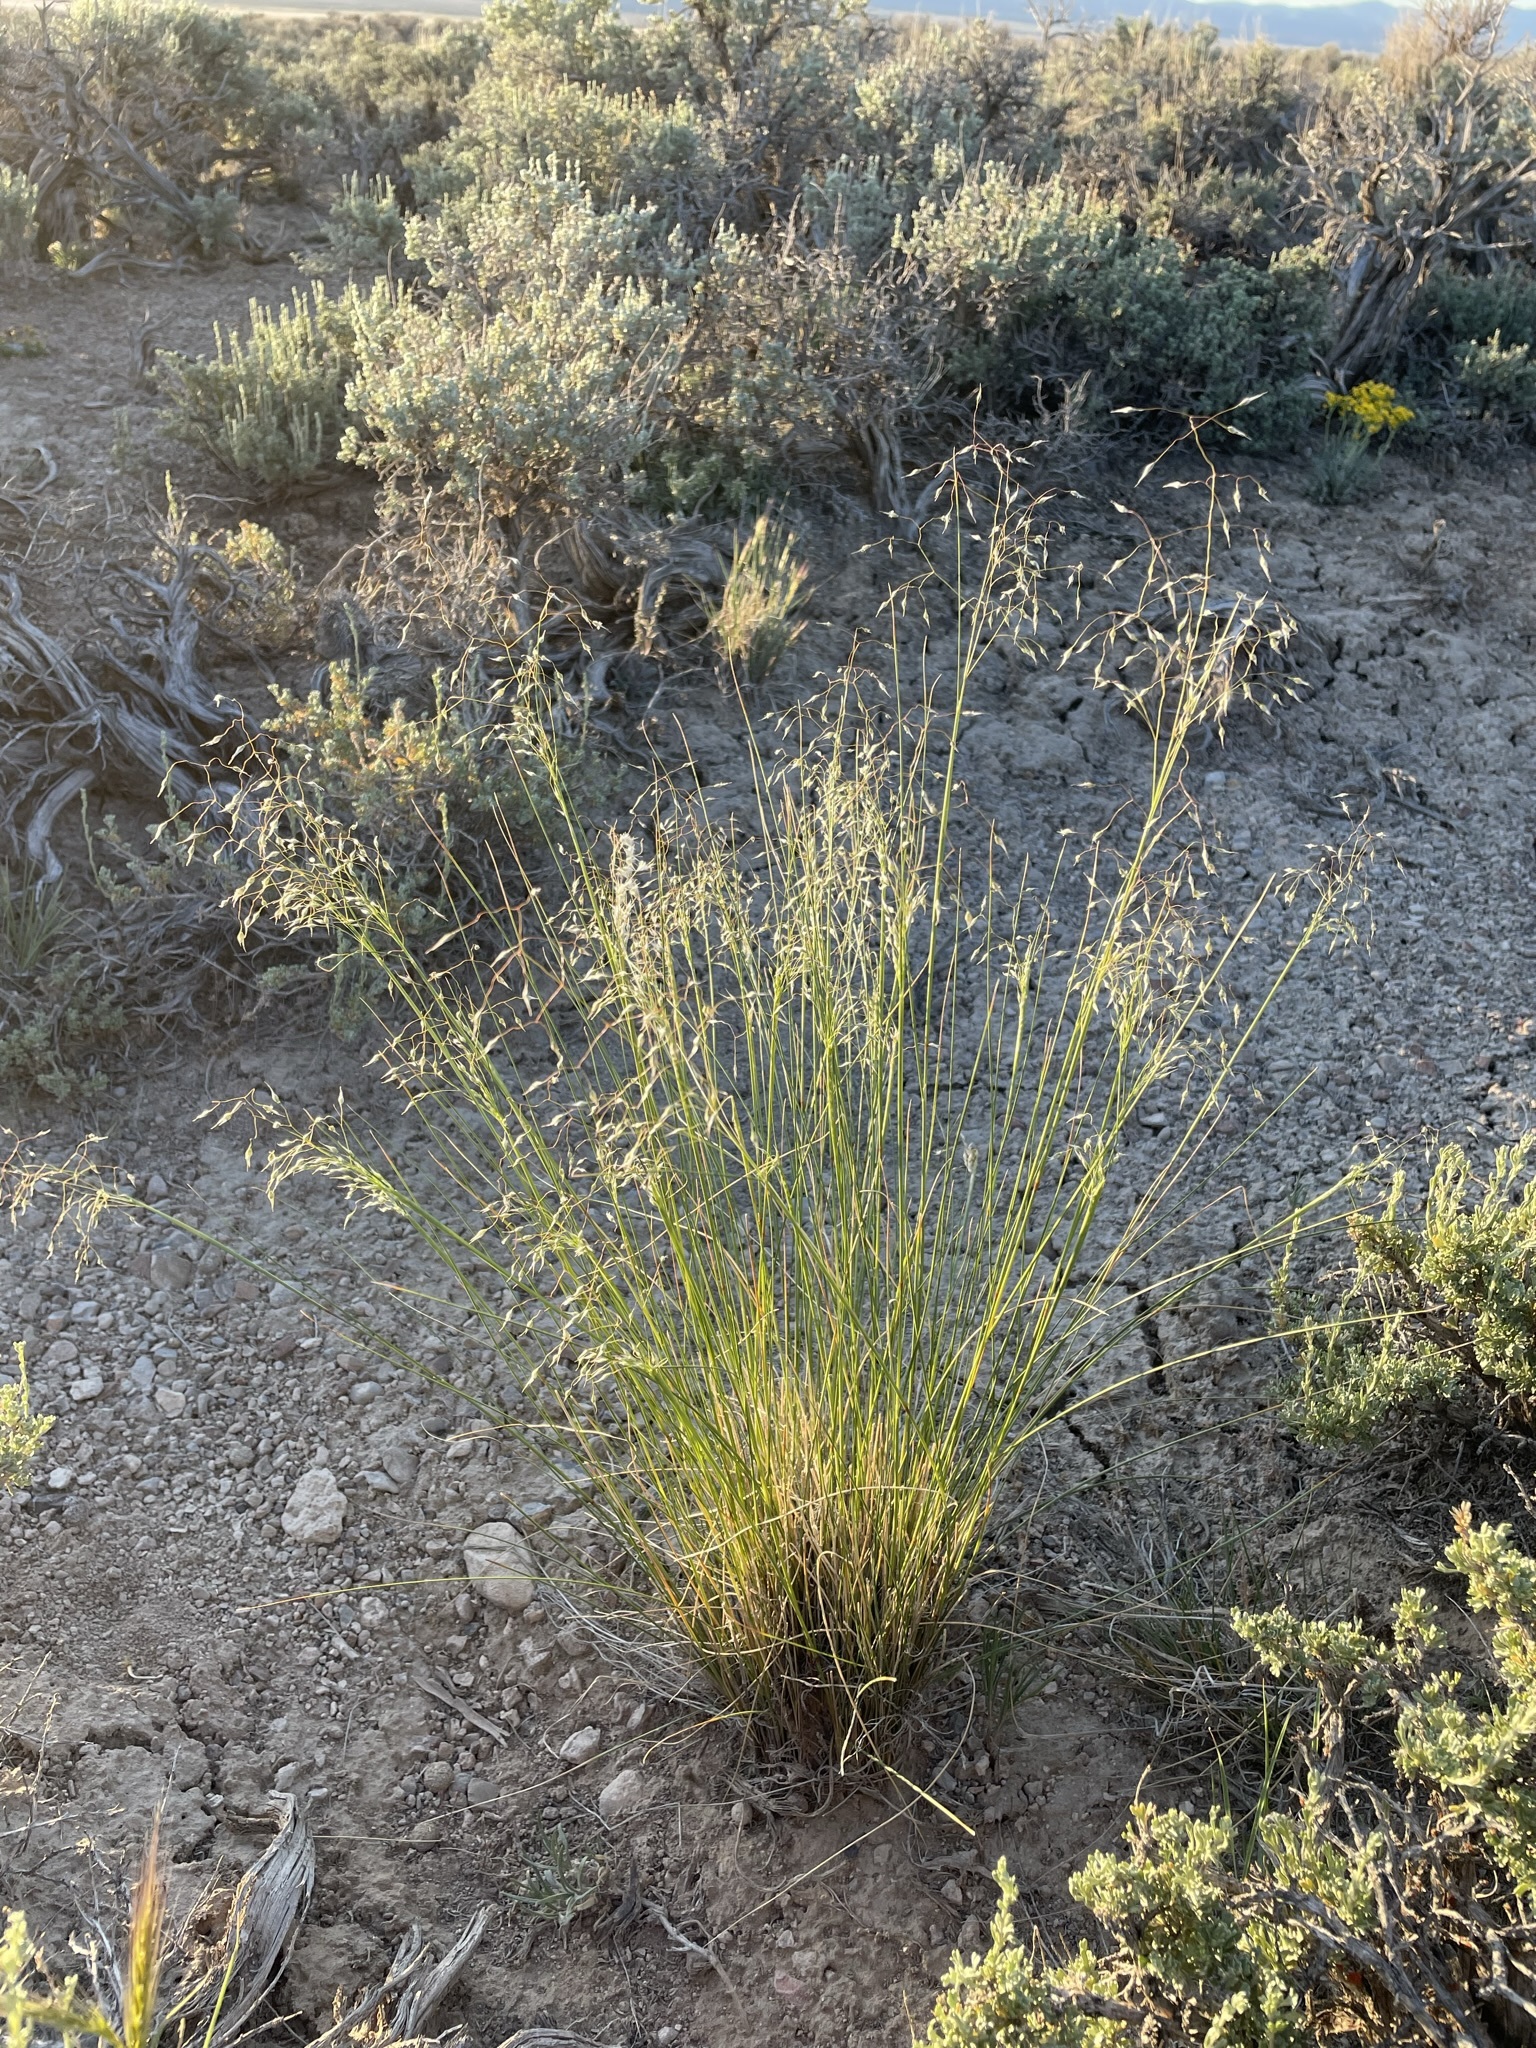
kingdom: Plantae
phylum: Tracheophyta
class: Liliopsida
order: Poales
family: Poaceae
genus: Eriocoma
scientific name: Eriocoma hymenoides
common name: Indian mountain ricegrass
